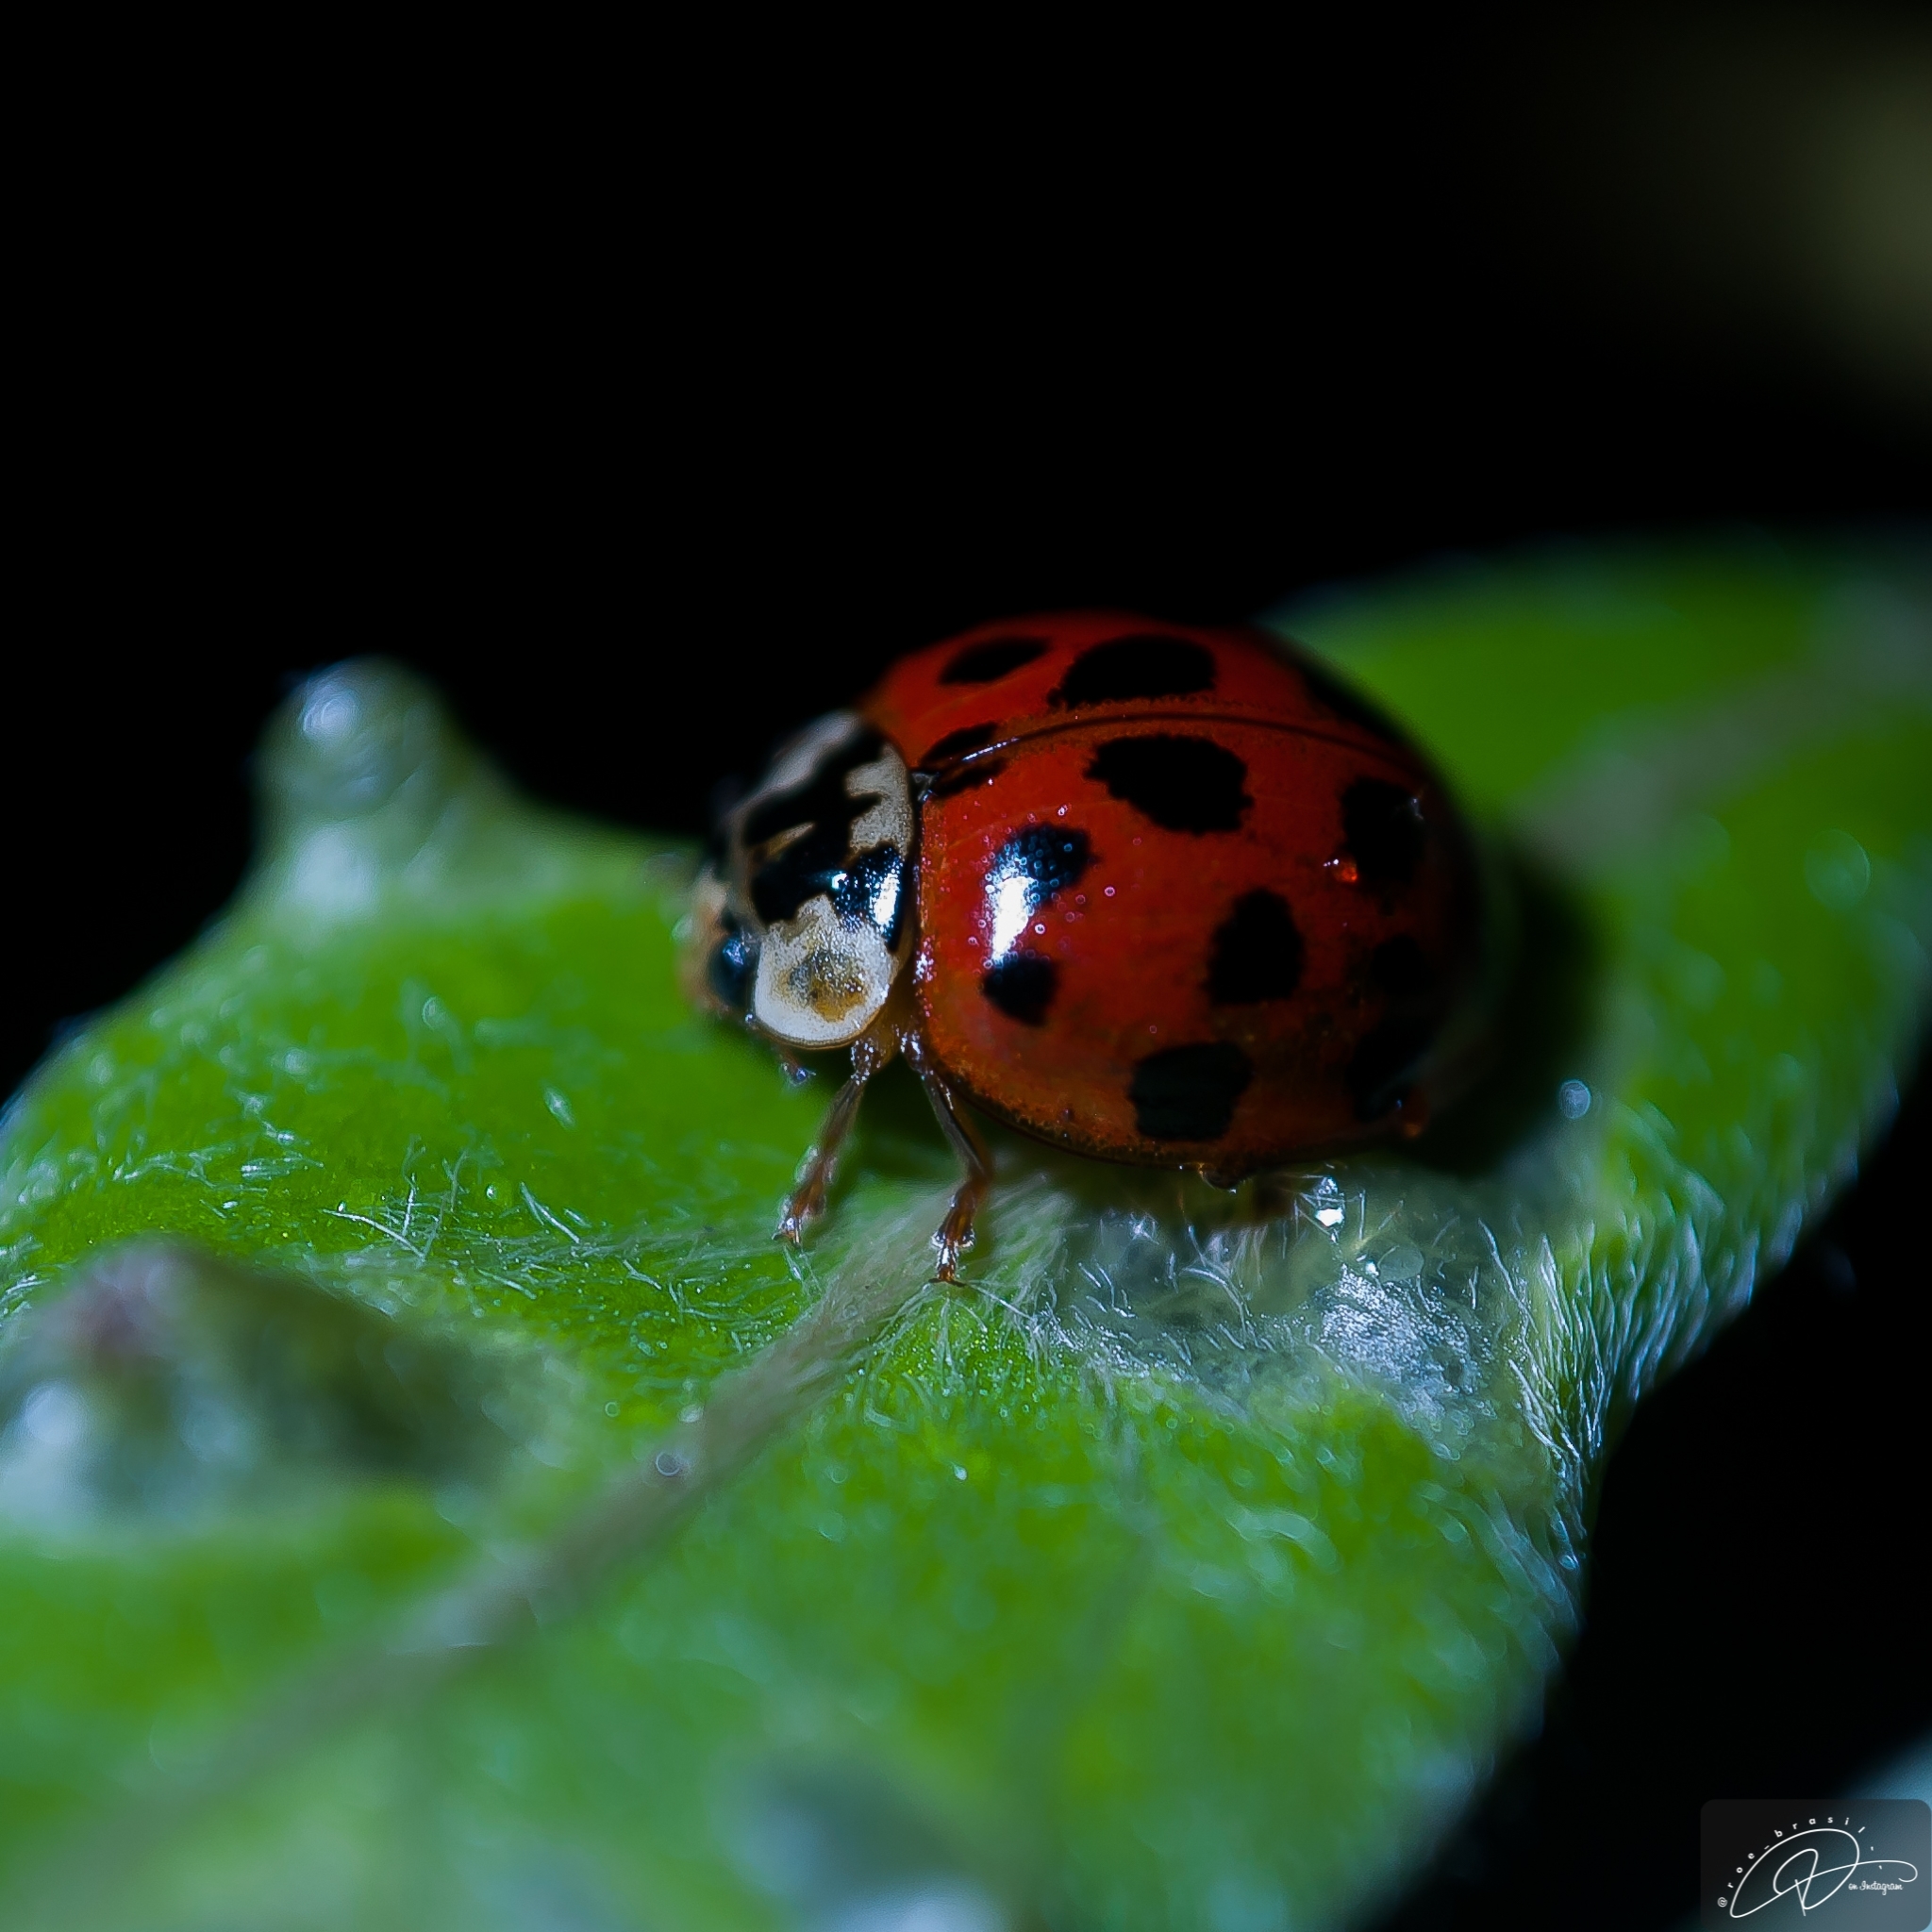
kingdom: Animalia
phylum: Arthropoda
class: Insecta
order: Coleoptera
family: Coccinellidae
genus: Harmonia
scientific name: Harmonia axyridis
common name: Harlequin ladybird
